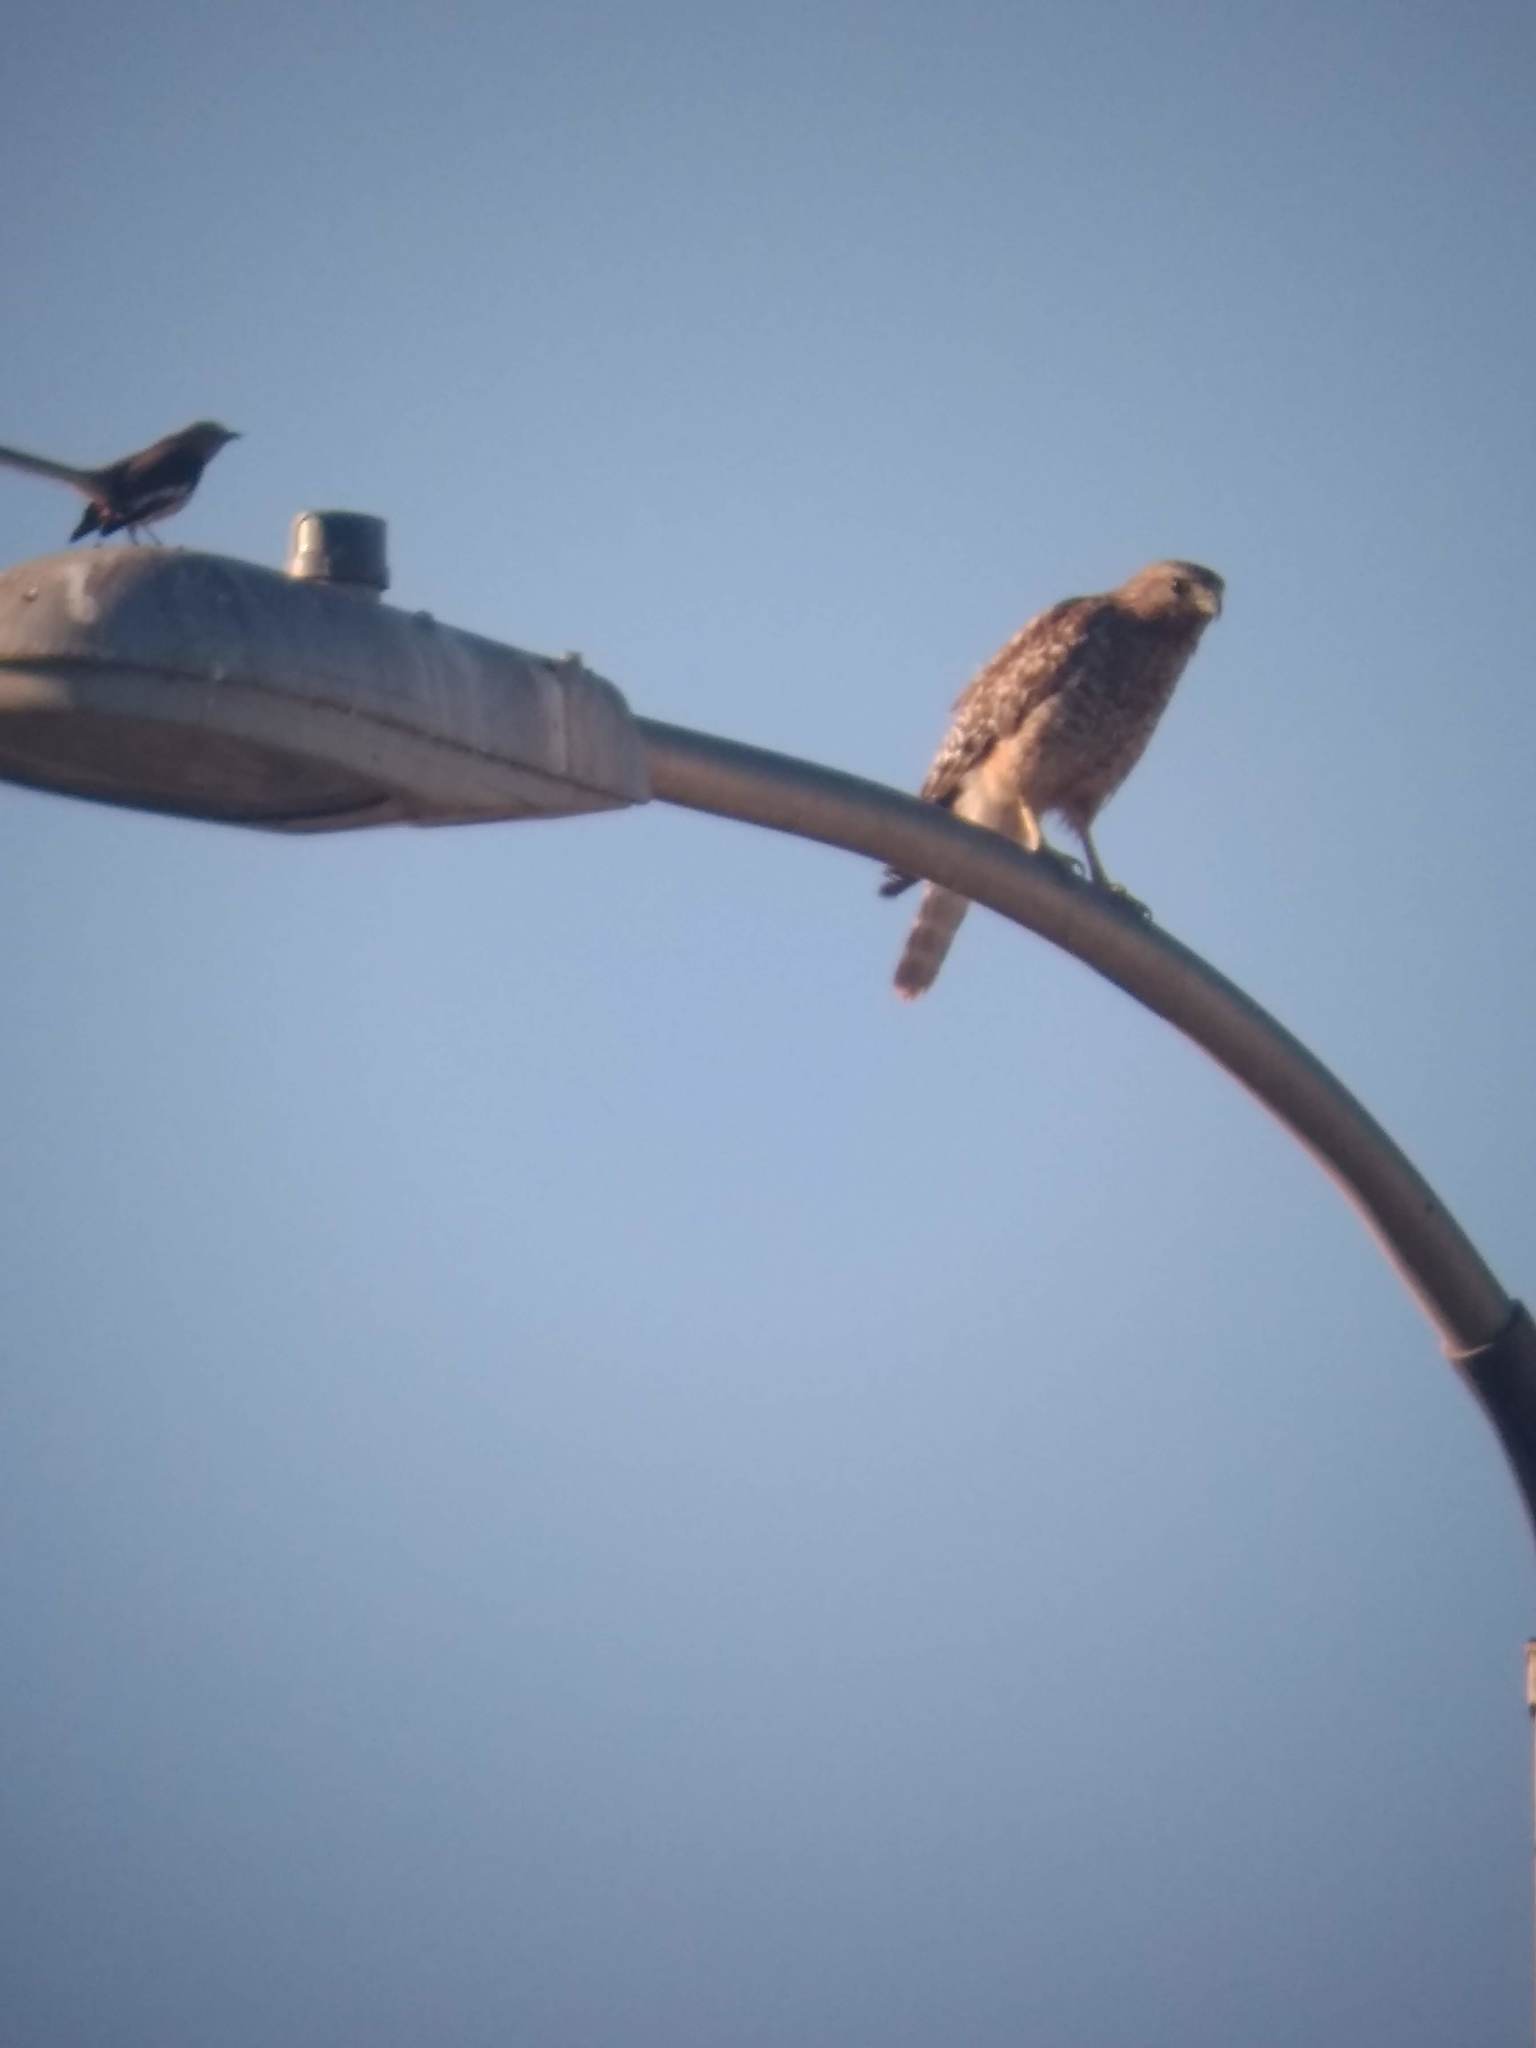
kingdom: Animalia
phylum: Chordata
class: Aves
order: Accipitriformes
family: Accipitridae
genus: Buteo
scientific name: Buteo lineatus
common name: Red-shouldered hawk
